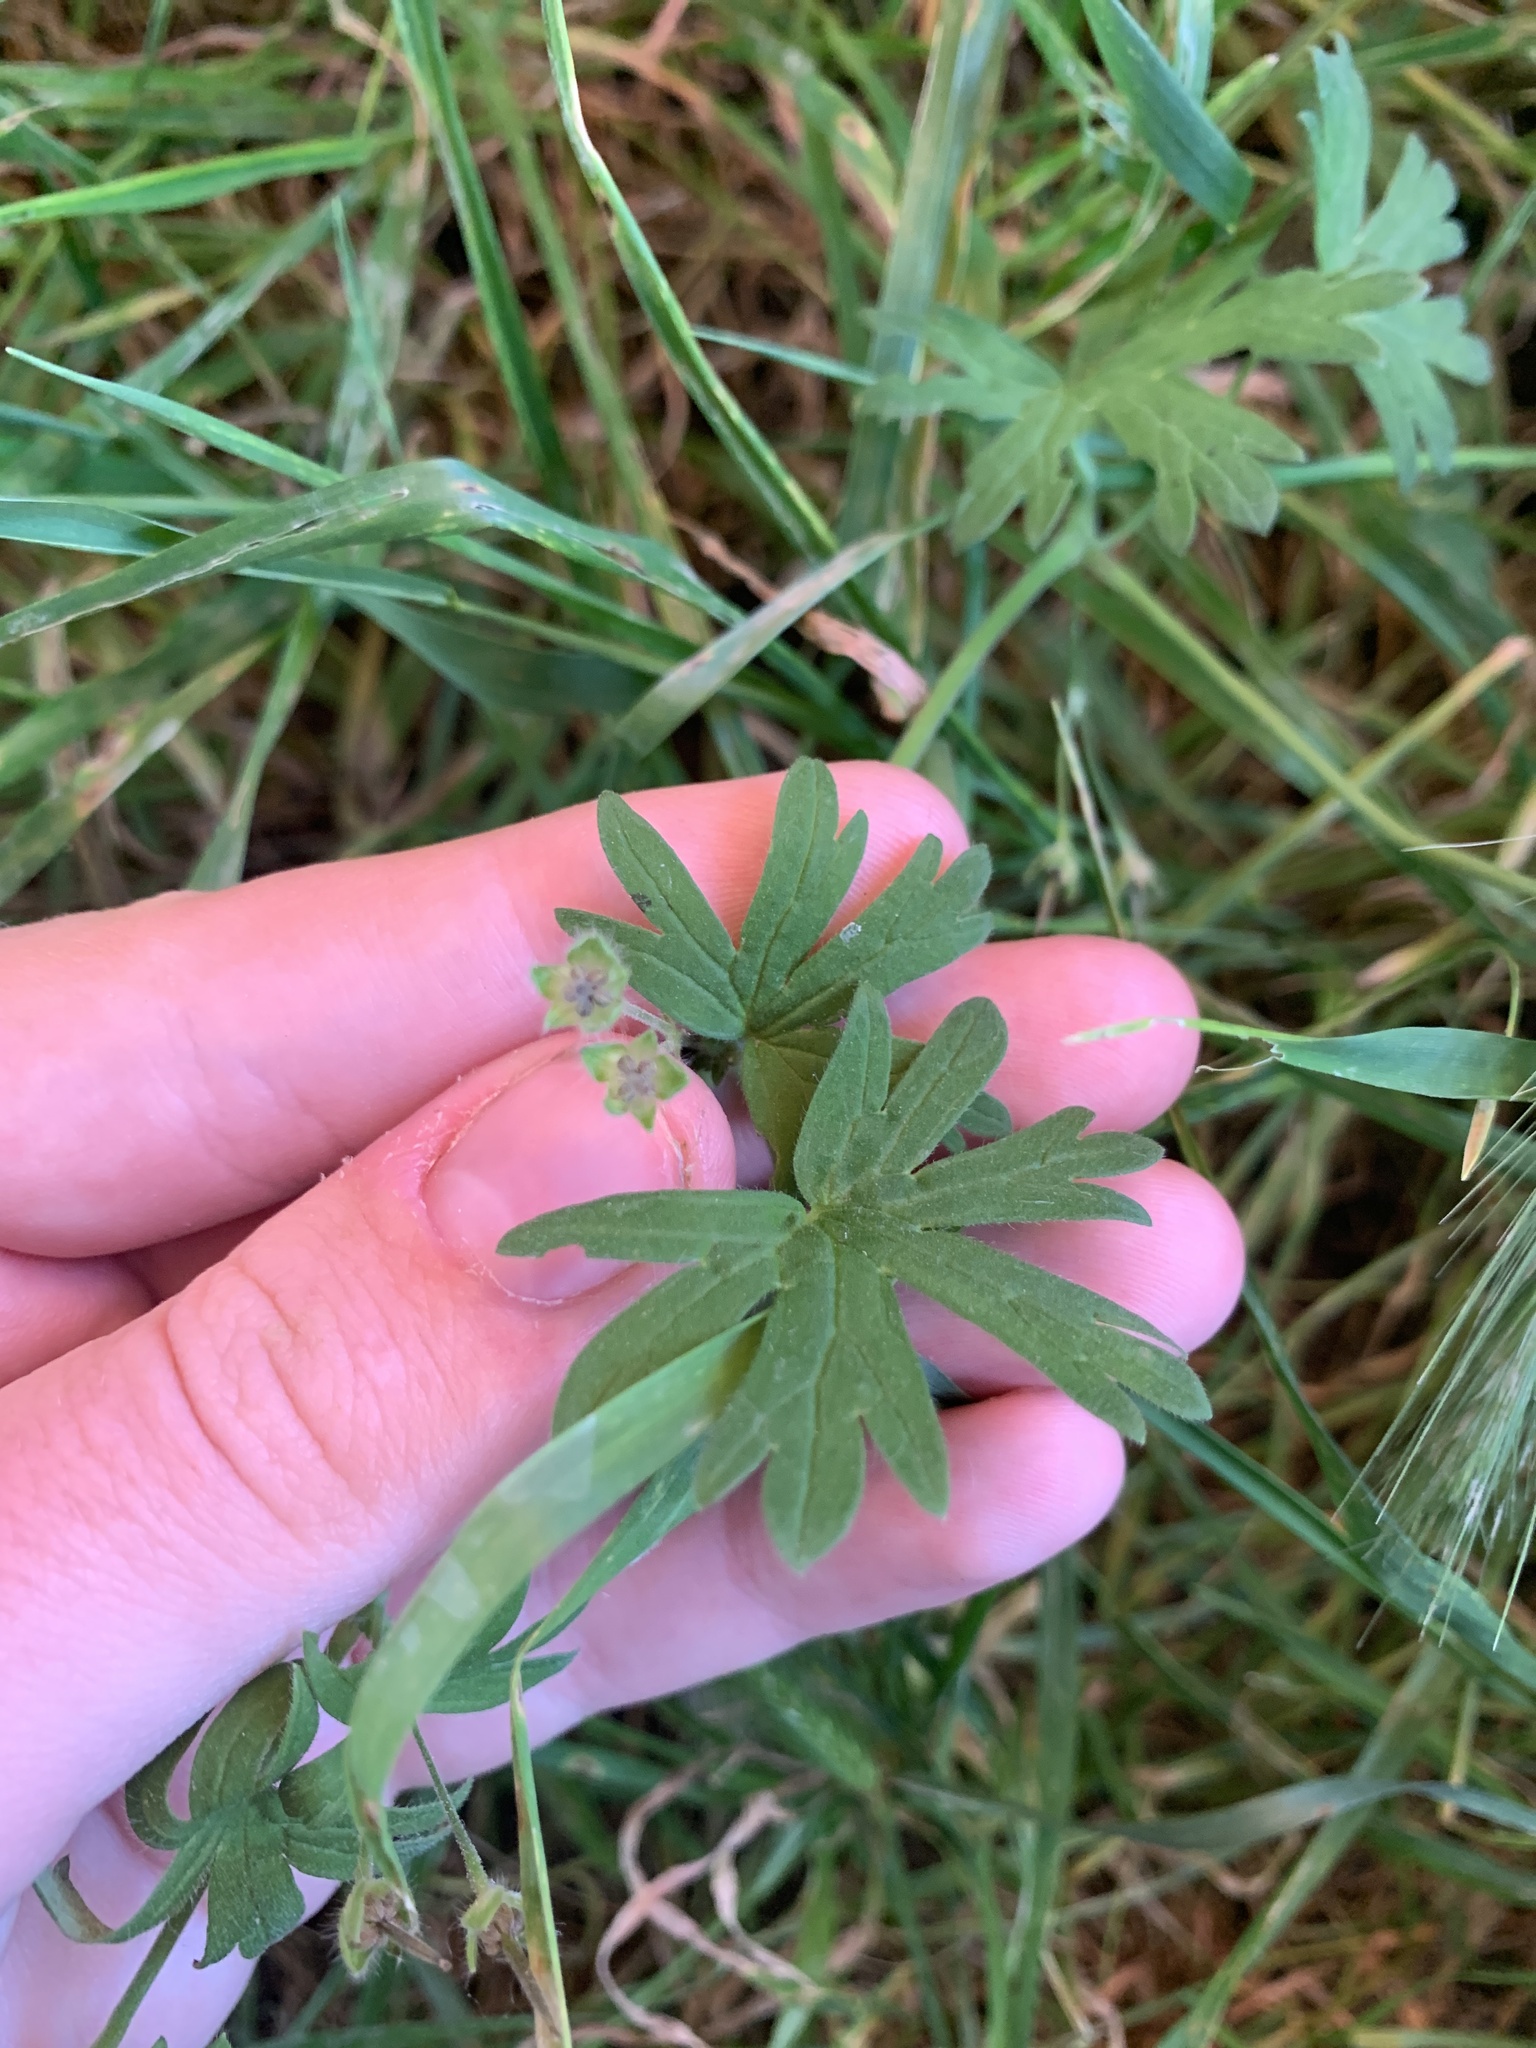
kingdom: Plantae
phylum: Tracheophyta
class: Magnoliopsida
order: Geraniales
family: Geraniaceae
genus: Geranium
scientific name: Geranium pusillum
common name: Small geranium
